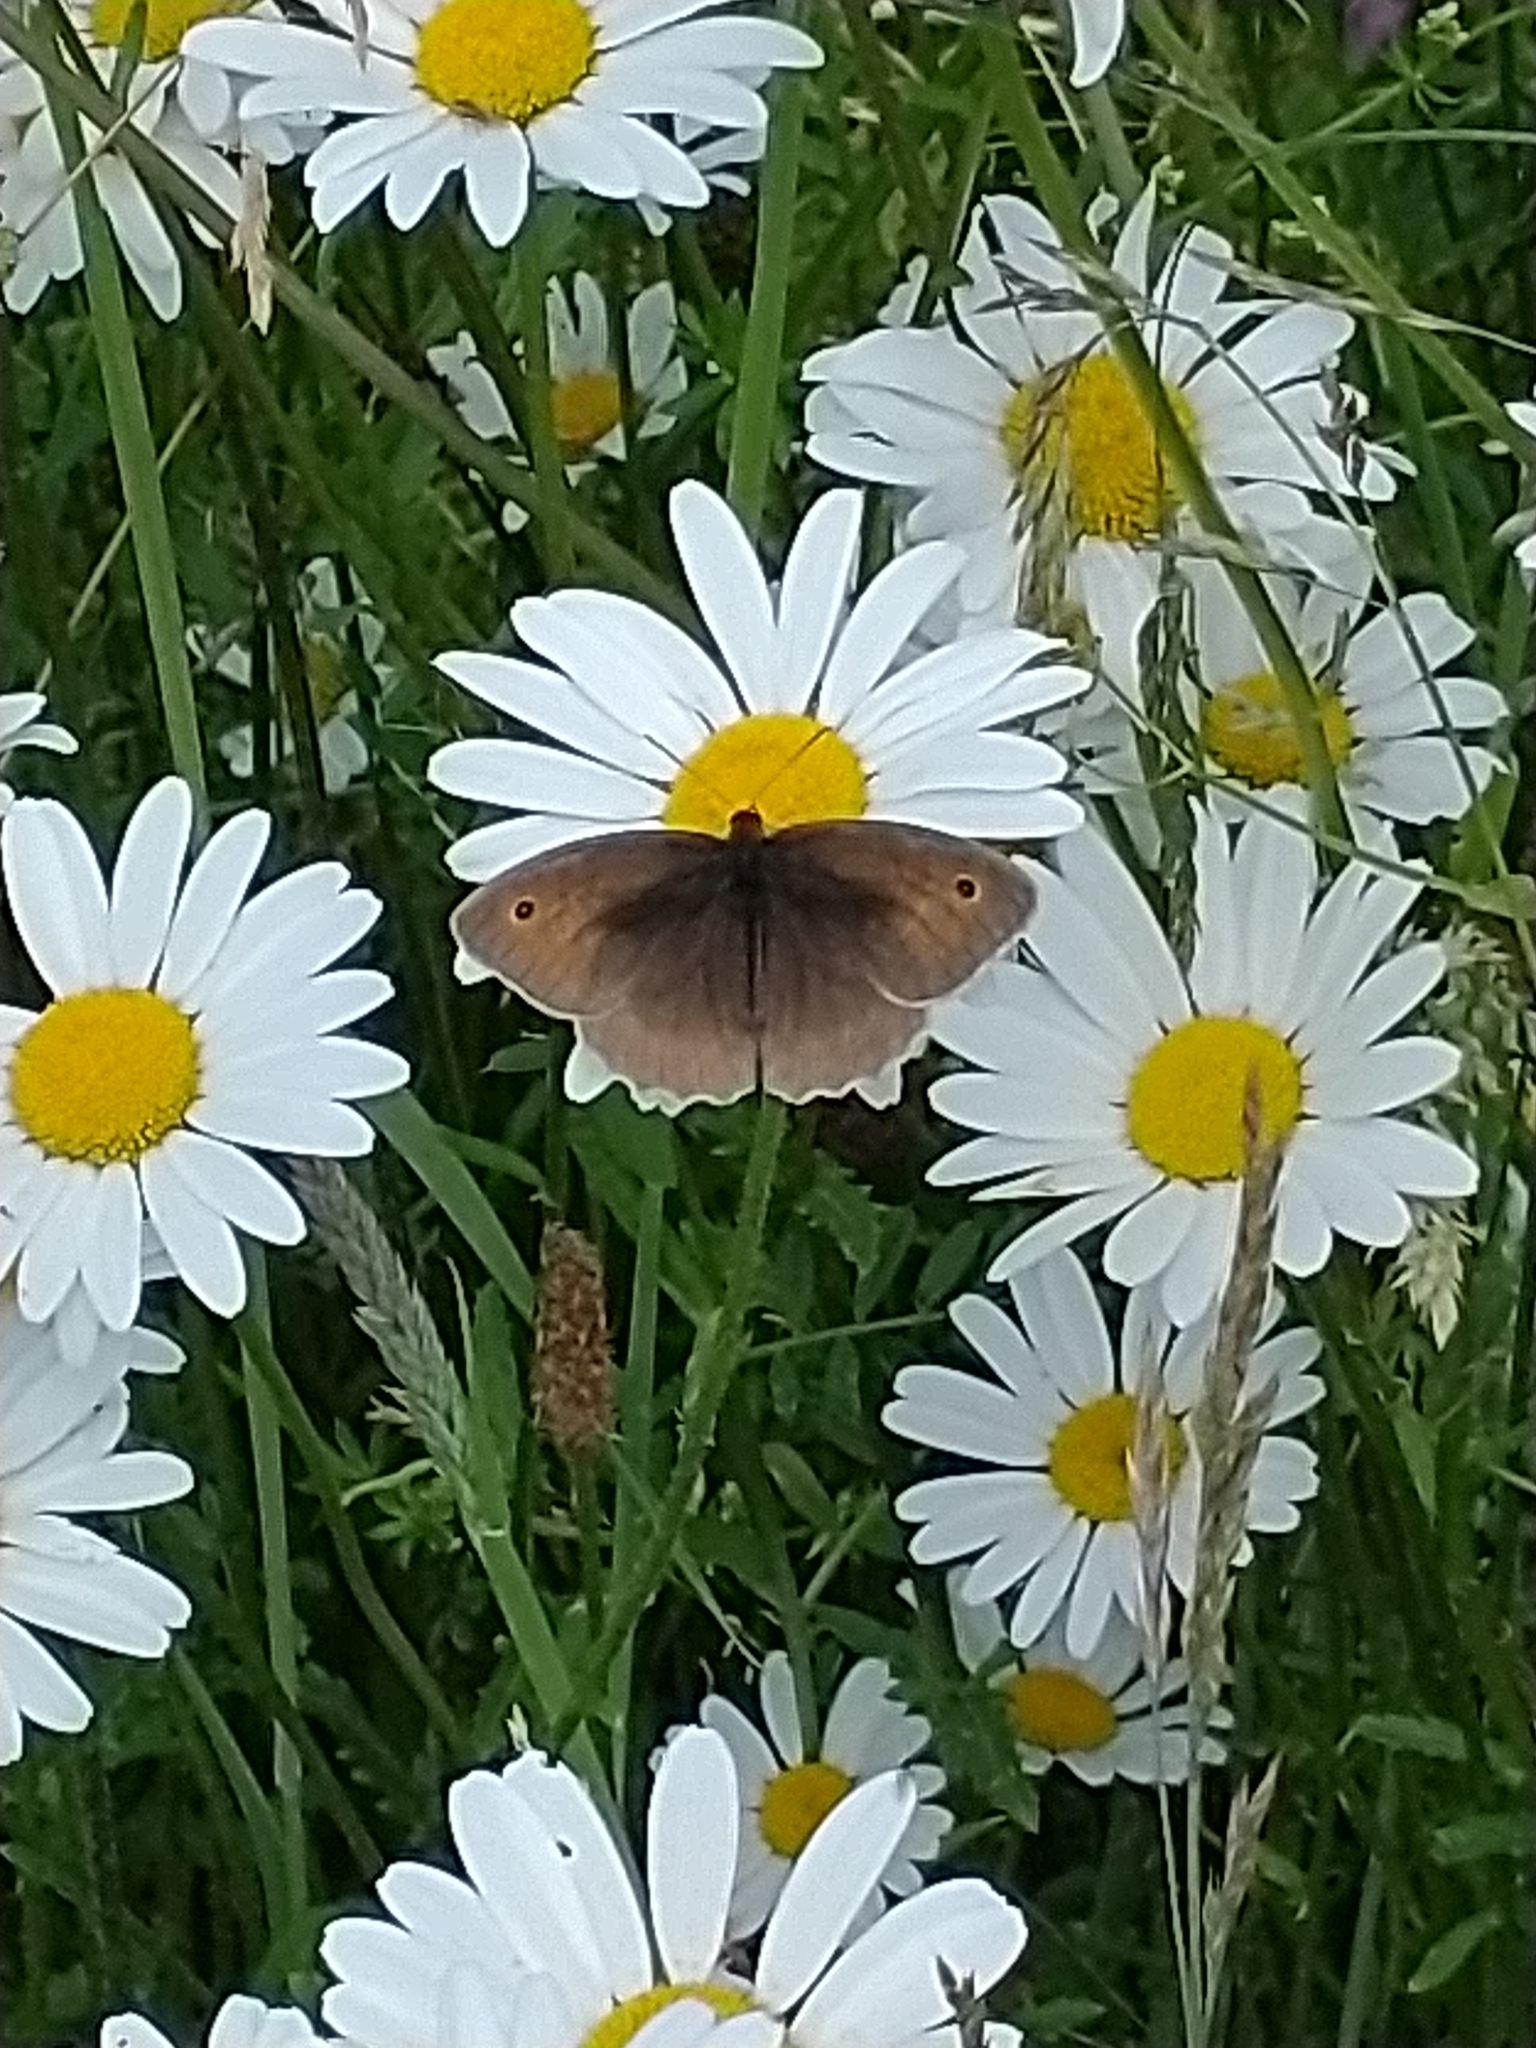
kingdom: Animalia
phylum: Arthropoda
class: Insecta
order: Lepidoptera
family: Nymphalidae
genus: Maniola
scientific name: Maniola jurtina
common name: Meadow brown
